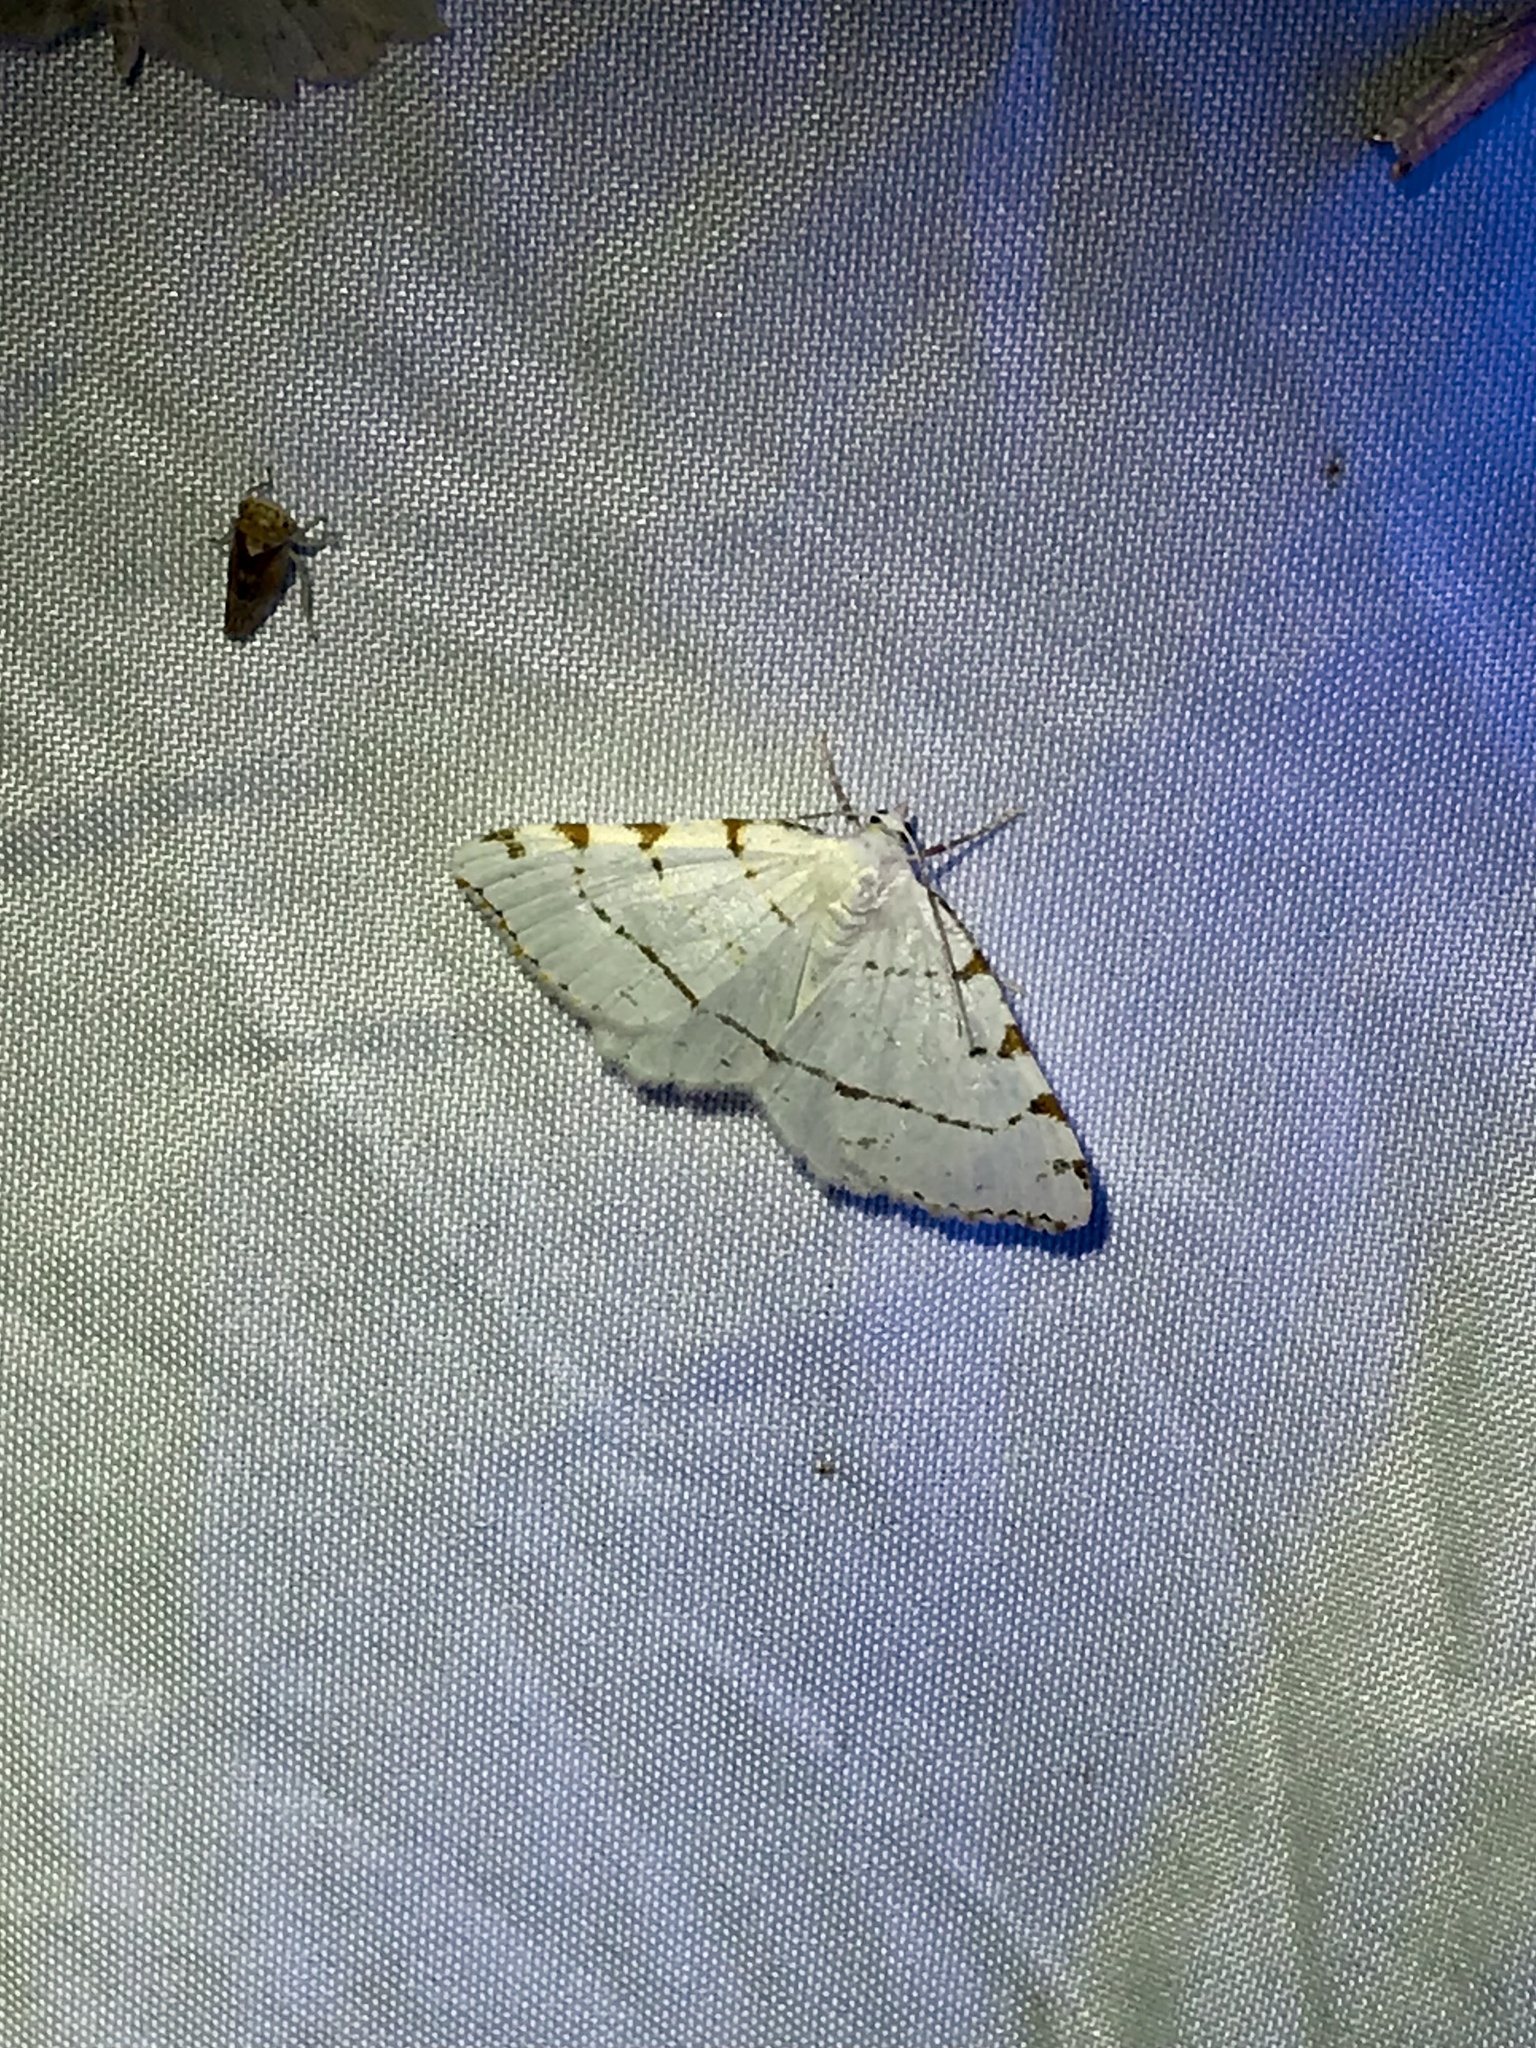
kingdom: Animalia
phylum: Arthropoda
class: Insecta
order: Lepidoptera
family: Geometridae
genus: Macaria
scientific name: Macaria pustularia
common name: Lesser maple spanworm moth
